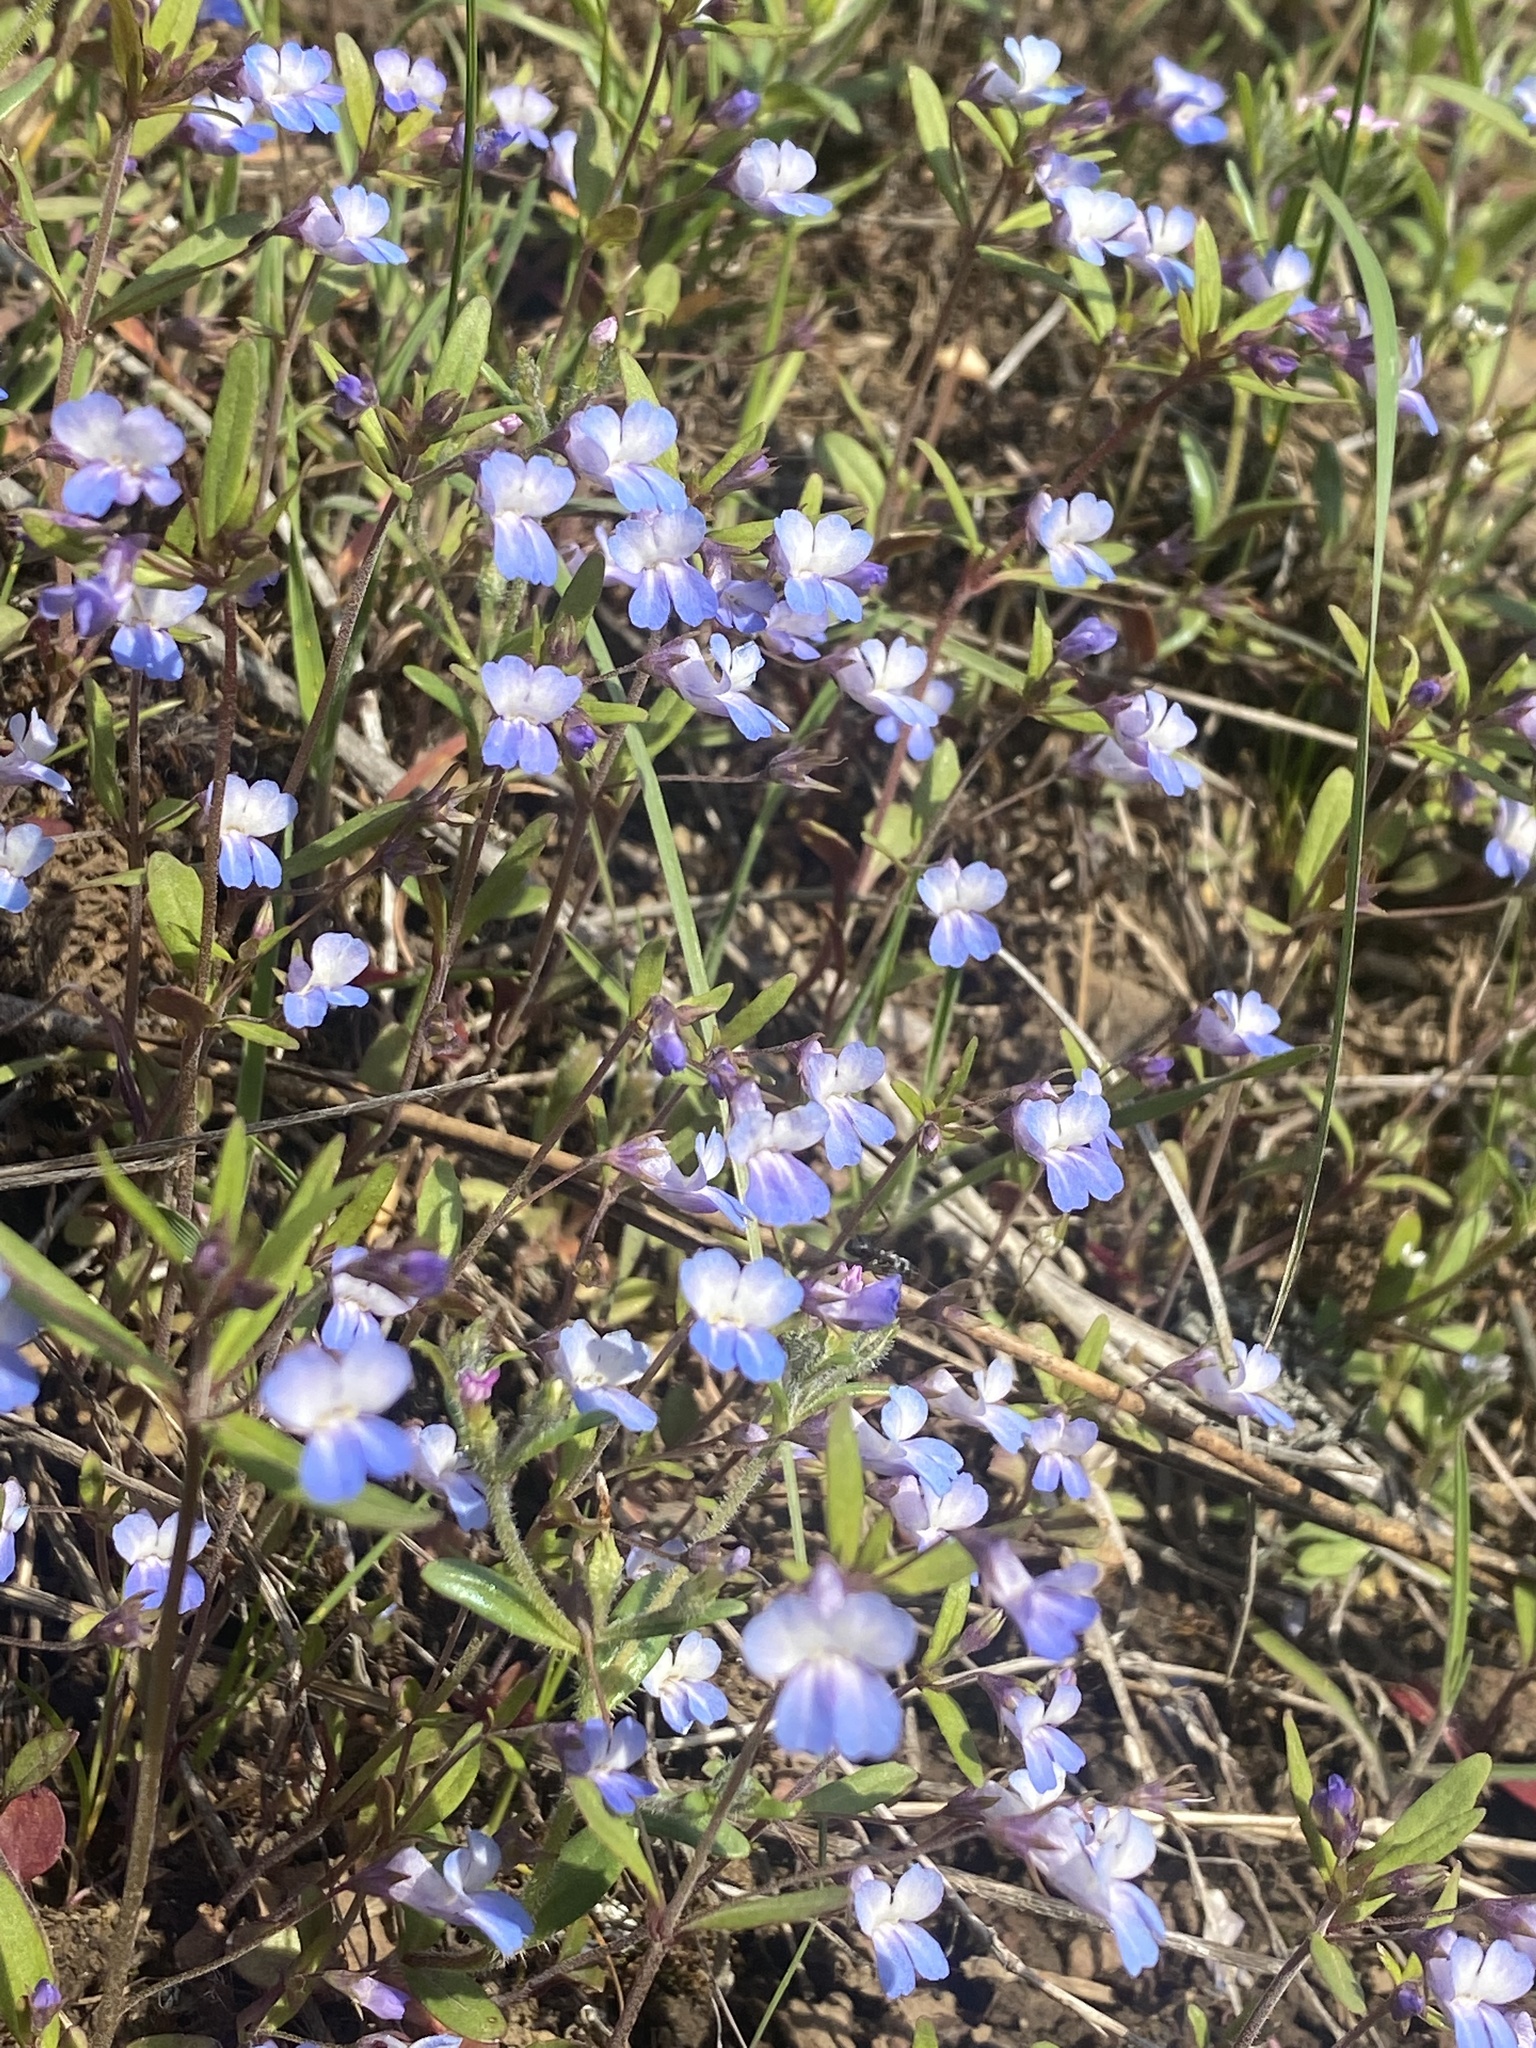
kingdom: Plantae
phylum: Tracheophyta
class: Magnoliopsida
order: Lamiales
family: Plantaginaceae
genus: Collinsia
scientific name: Collinsia parviflora
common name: Blue-lips
